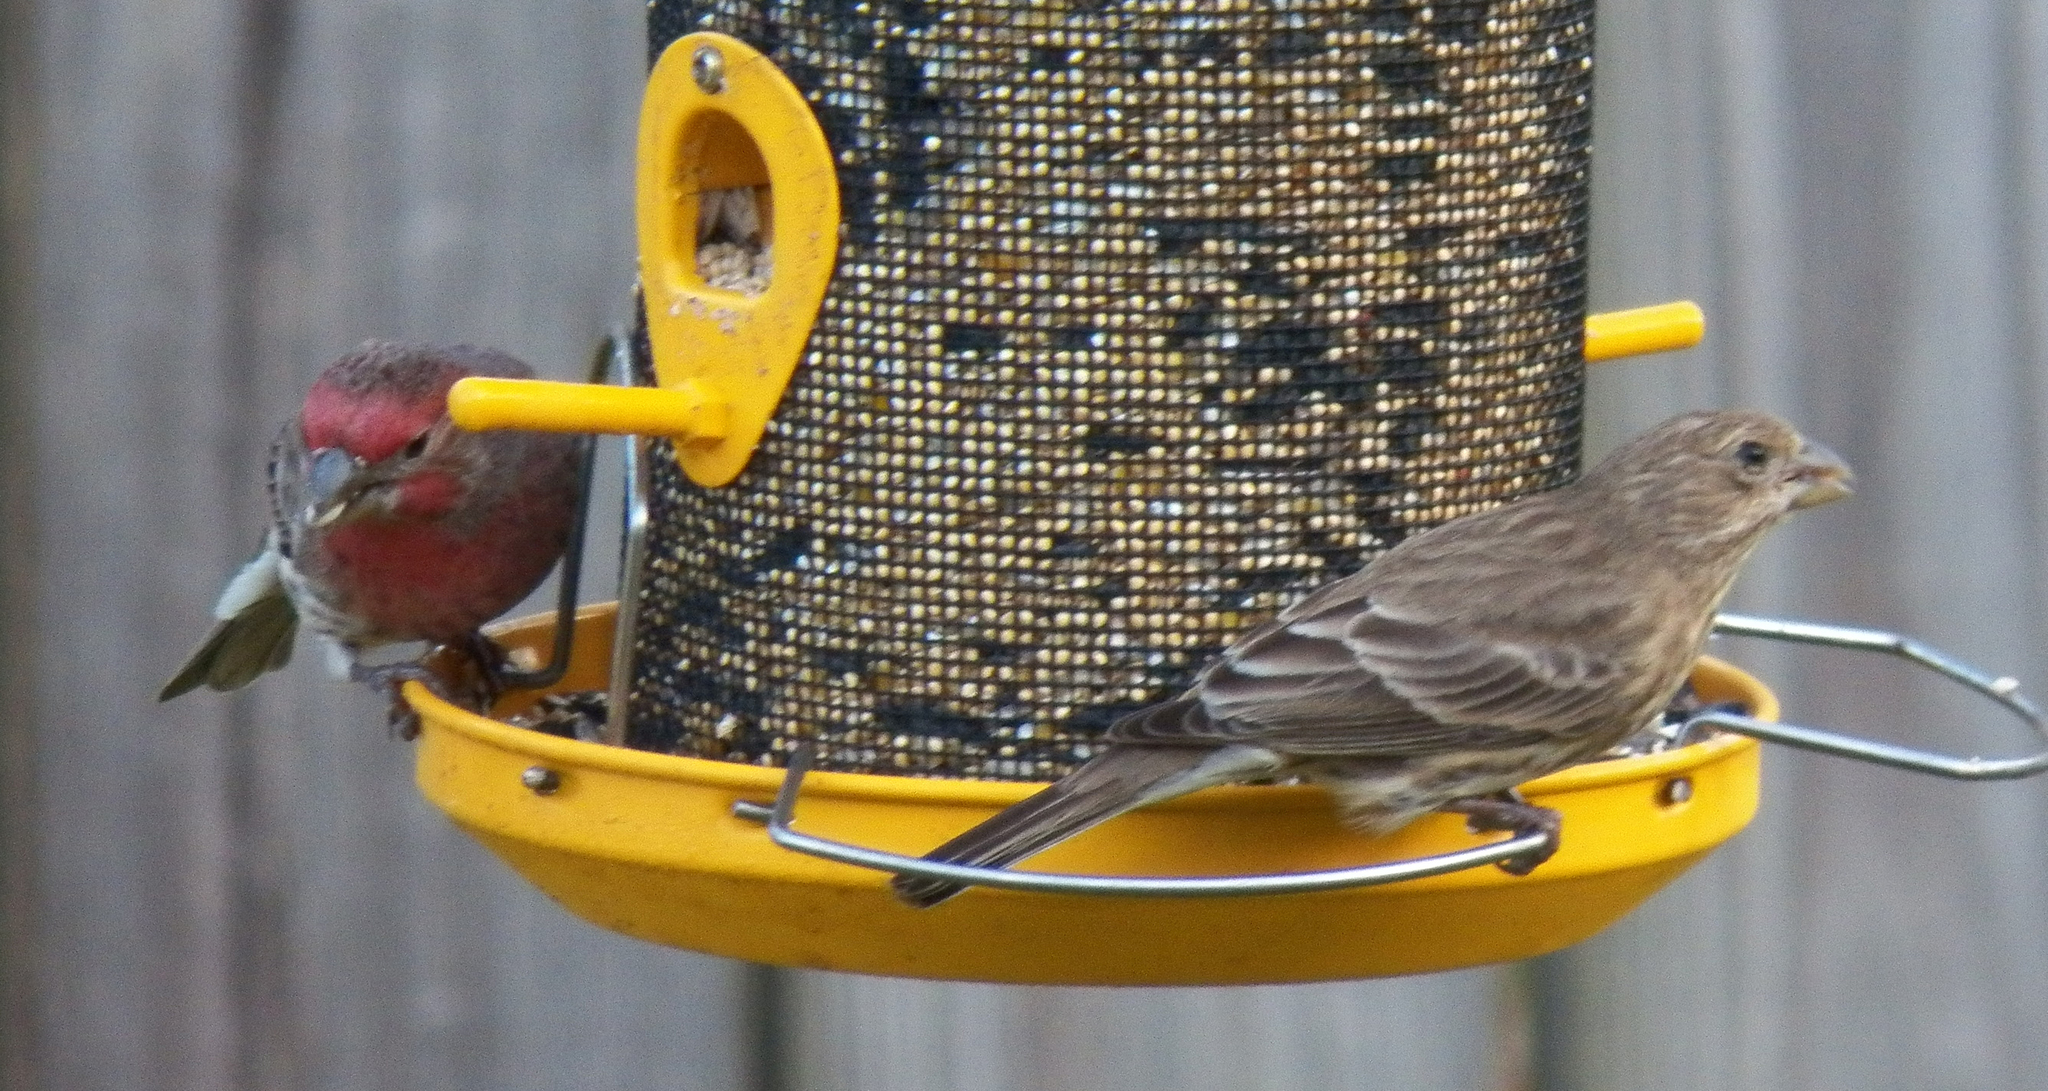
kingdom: Animalia
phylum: Chordata
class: Aves
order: Passeriformes
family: Fringillidae
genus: Haemorhous
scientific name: Haemorhous mexicanus
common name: House finch
